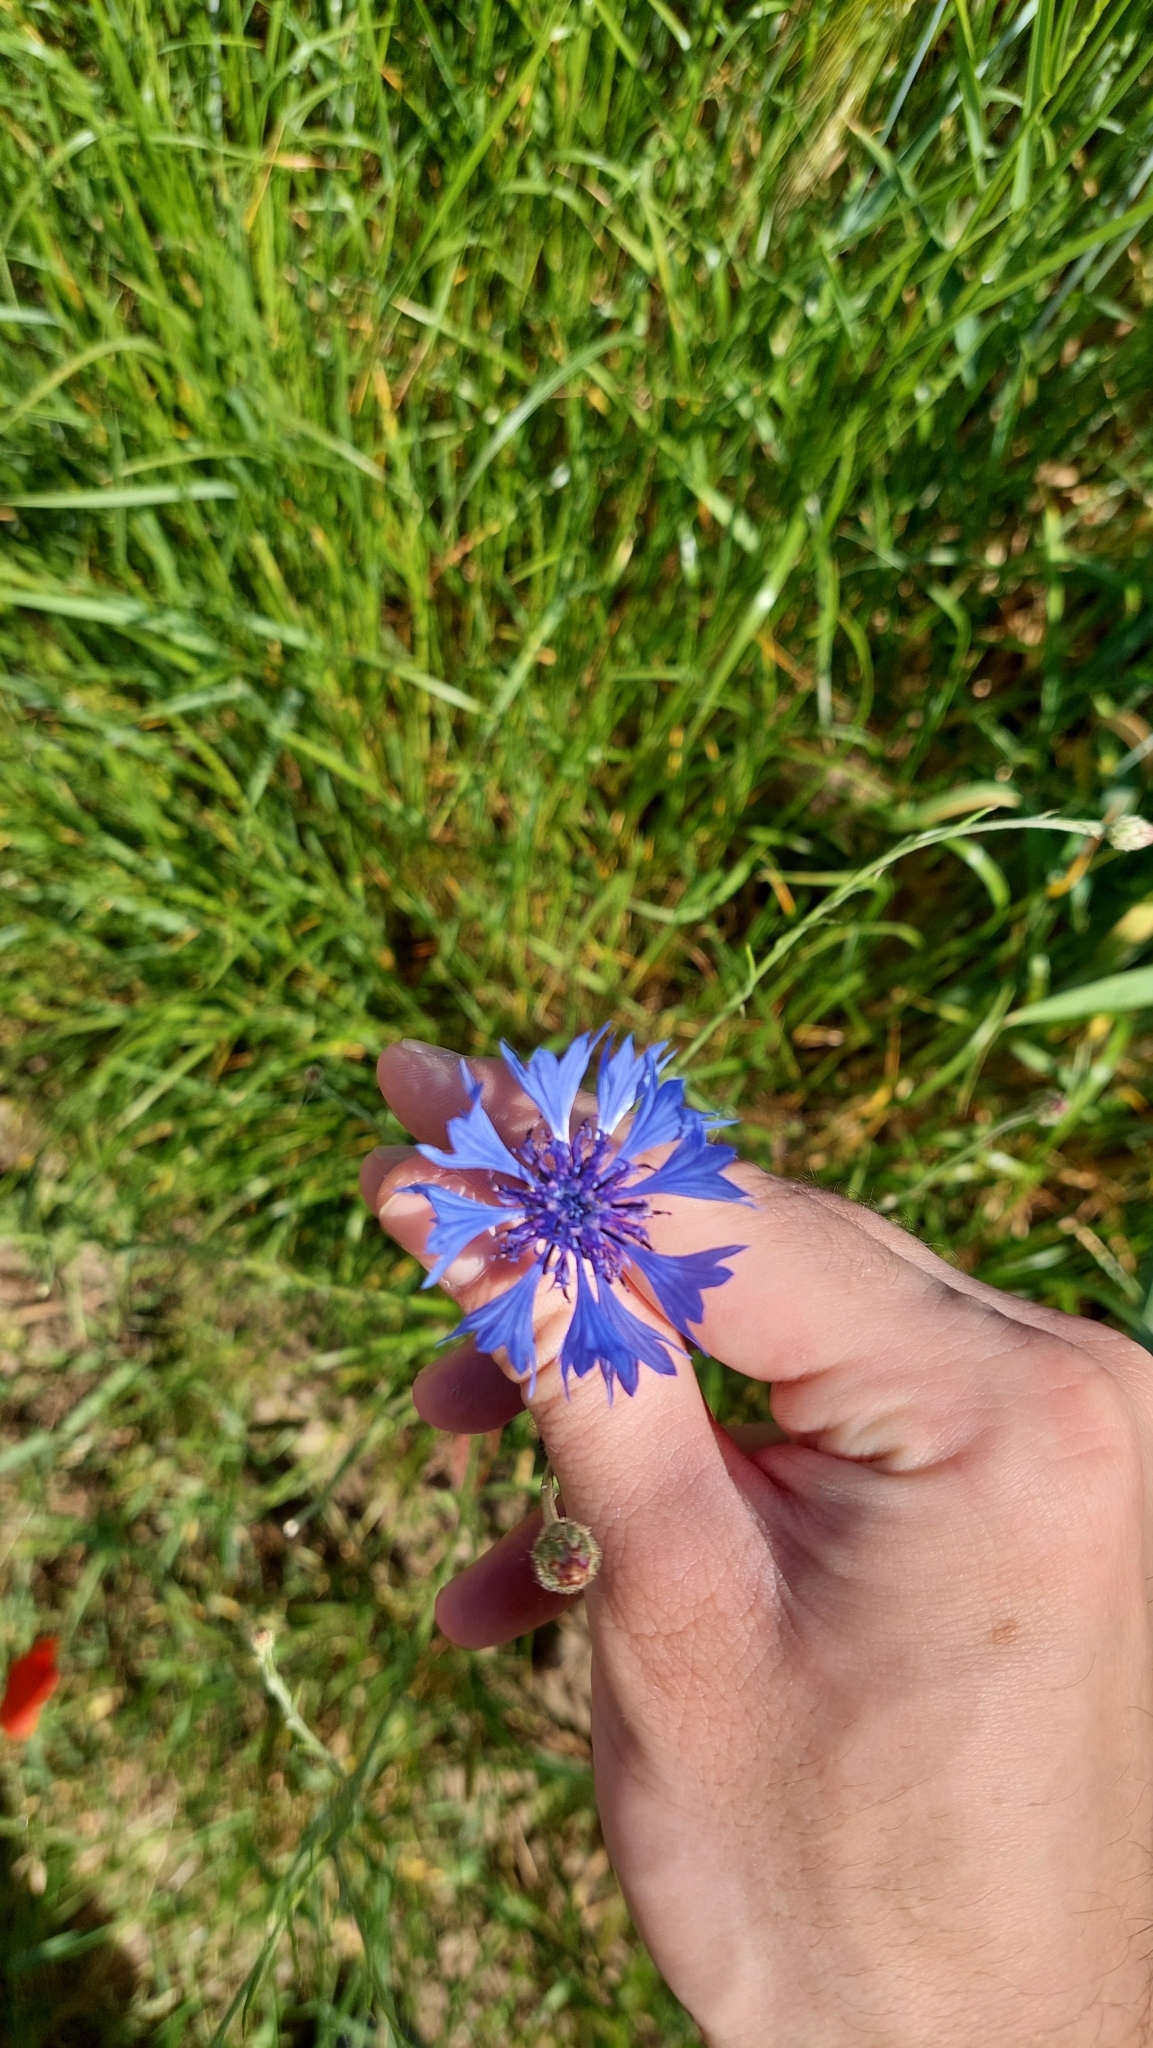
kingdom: Plantae
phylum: Tracheophyta
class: Magnoliopsida
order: Asterales
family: Asteraceae
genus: Centaurea
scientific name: Centaurea cyanus
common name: Cornflower
